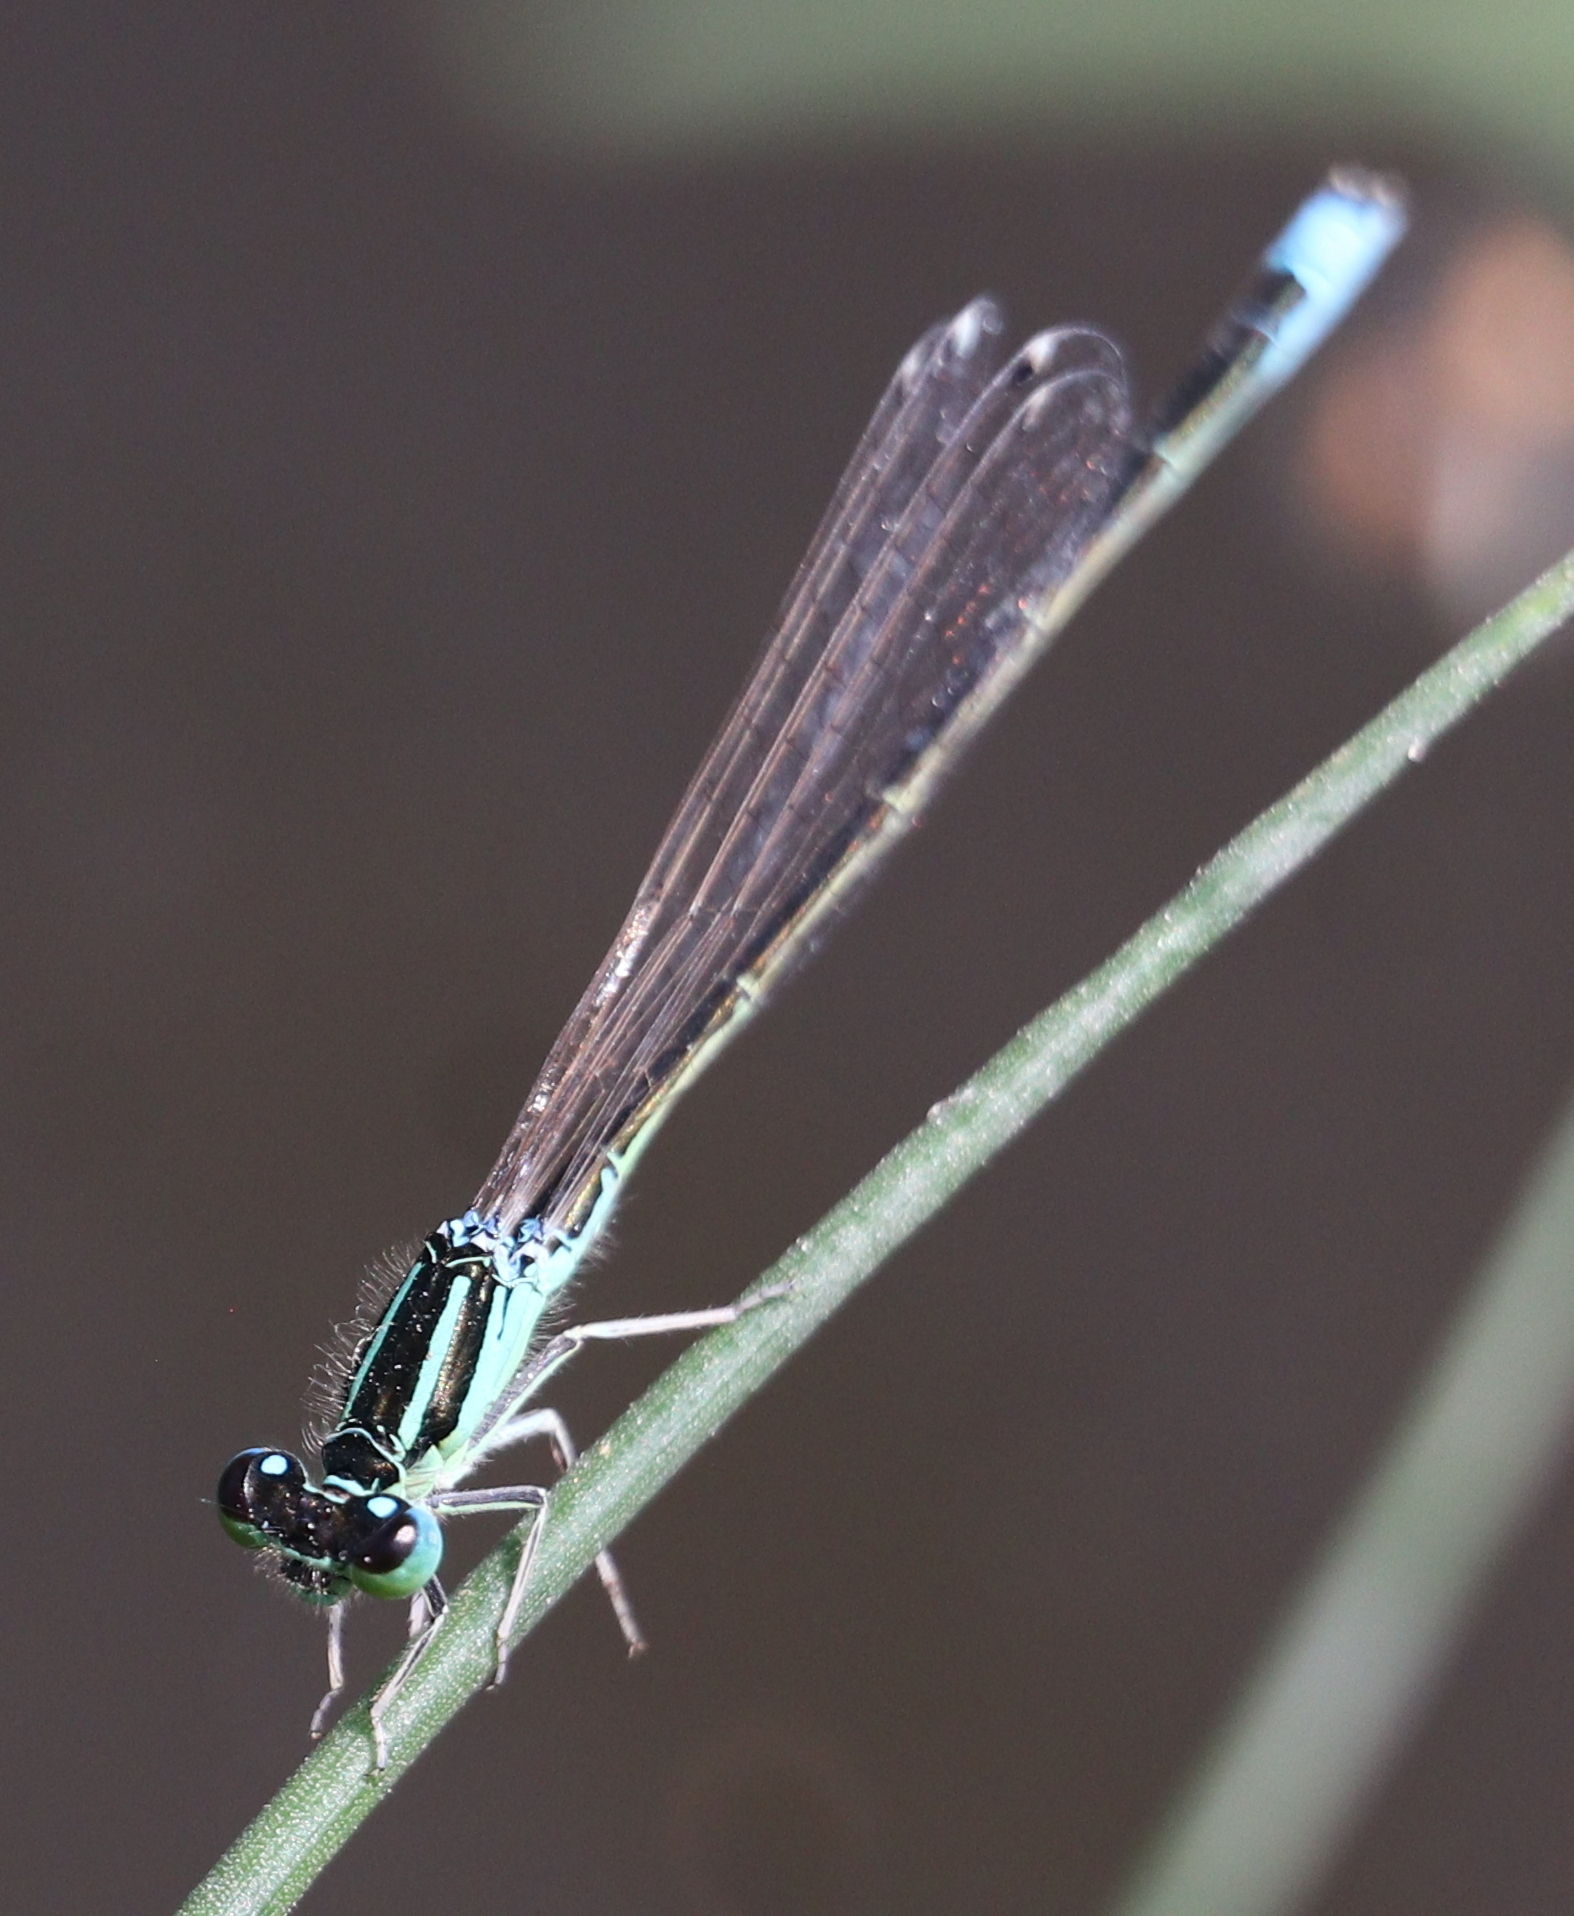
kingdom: Animalia
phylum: Arthropoda
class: Insecta
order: Odonata
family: Coenagrionidae
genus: Ischnura
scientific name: Ischnura elegans
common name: Blue-tailed damselfly
